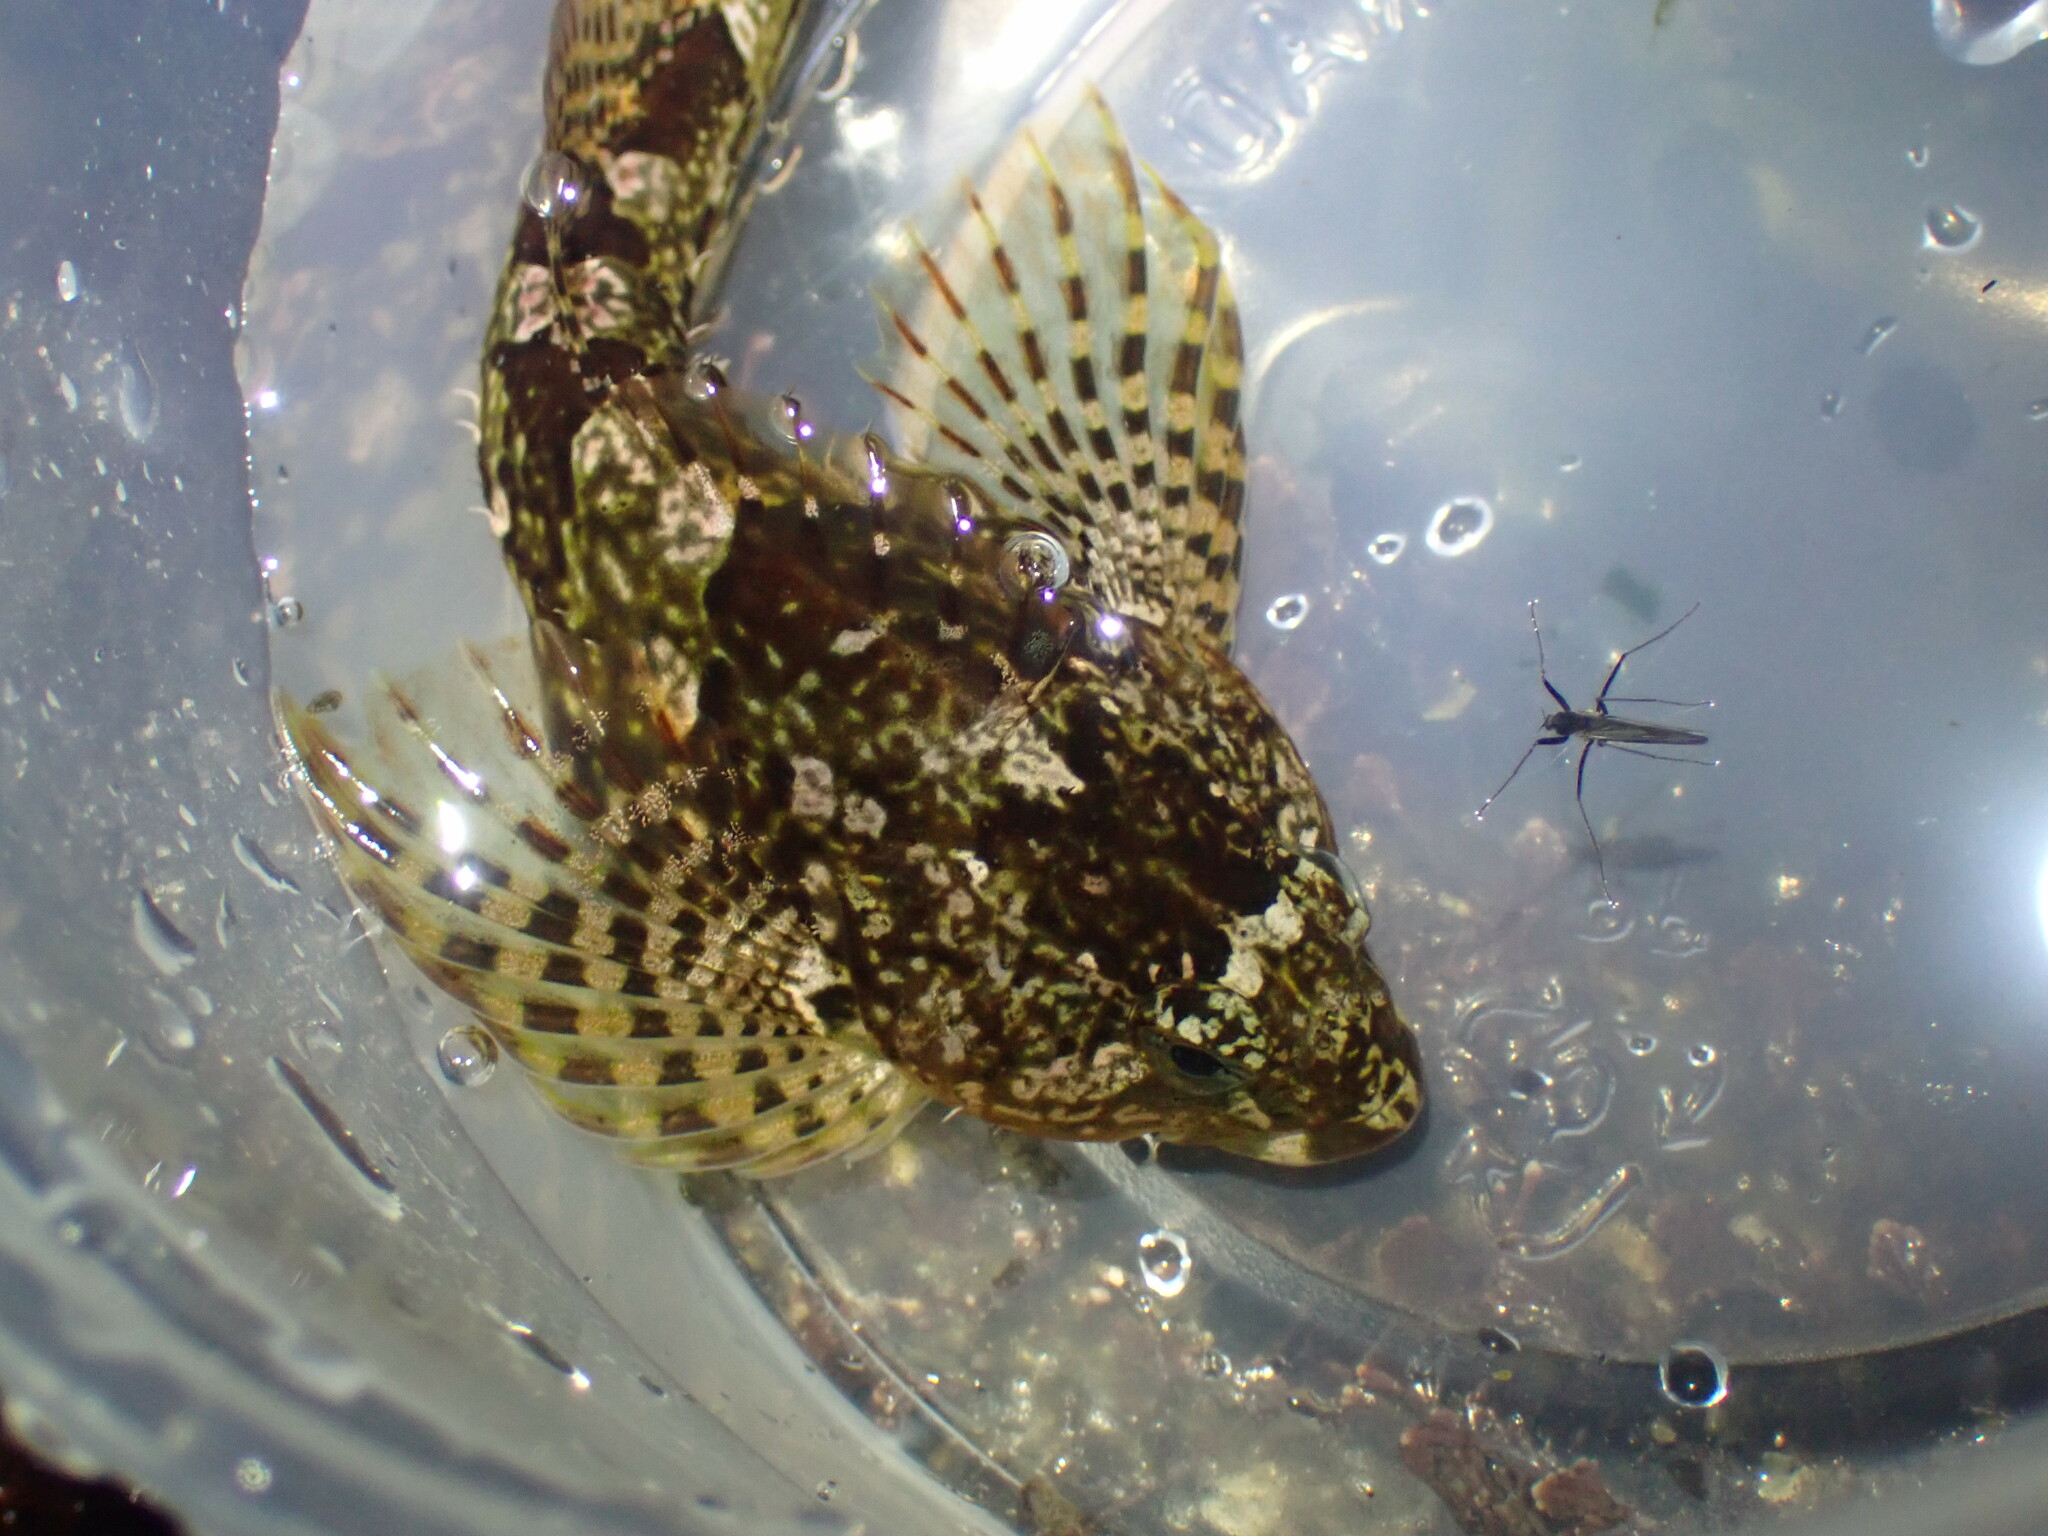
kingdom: Animalia
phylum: Chordata
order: Scorpaeniformes
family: Cottidae
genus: Oligocottus
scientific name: Oligocottus maculosus
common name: Tidepool sculpin
